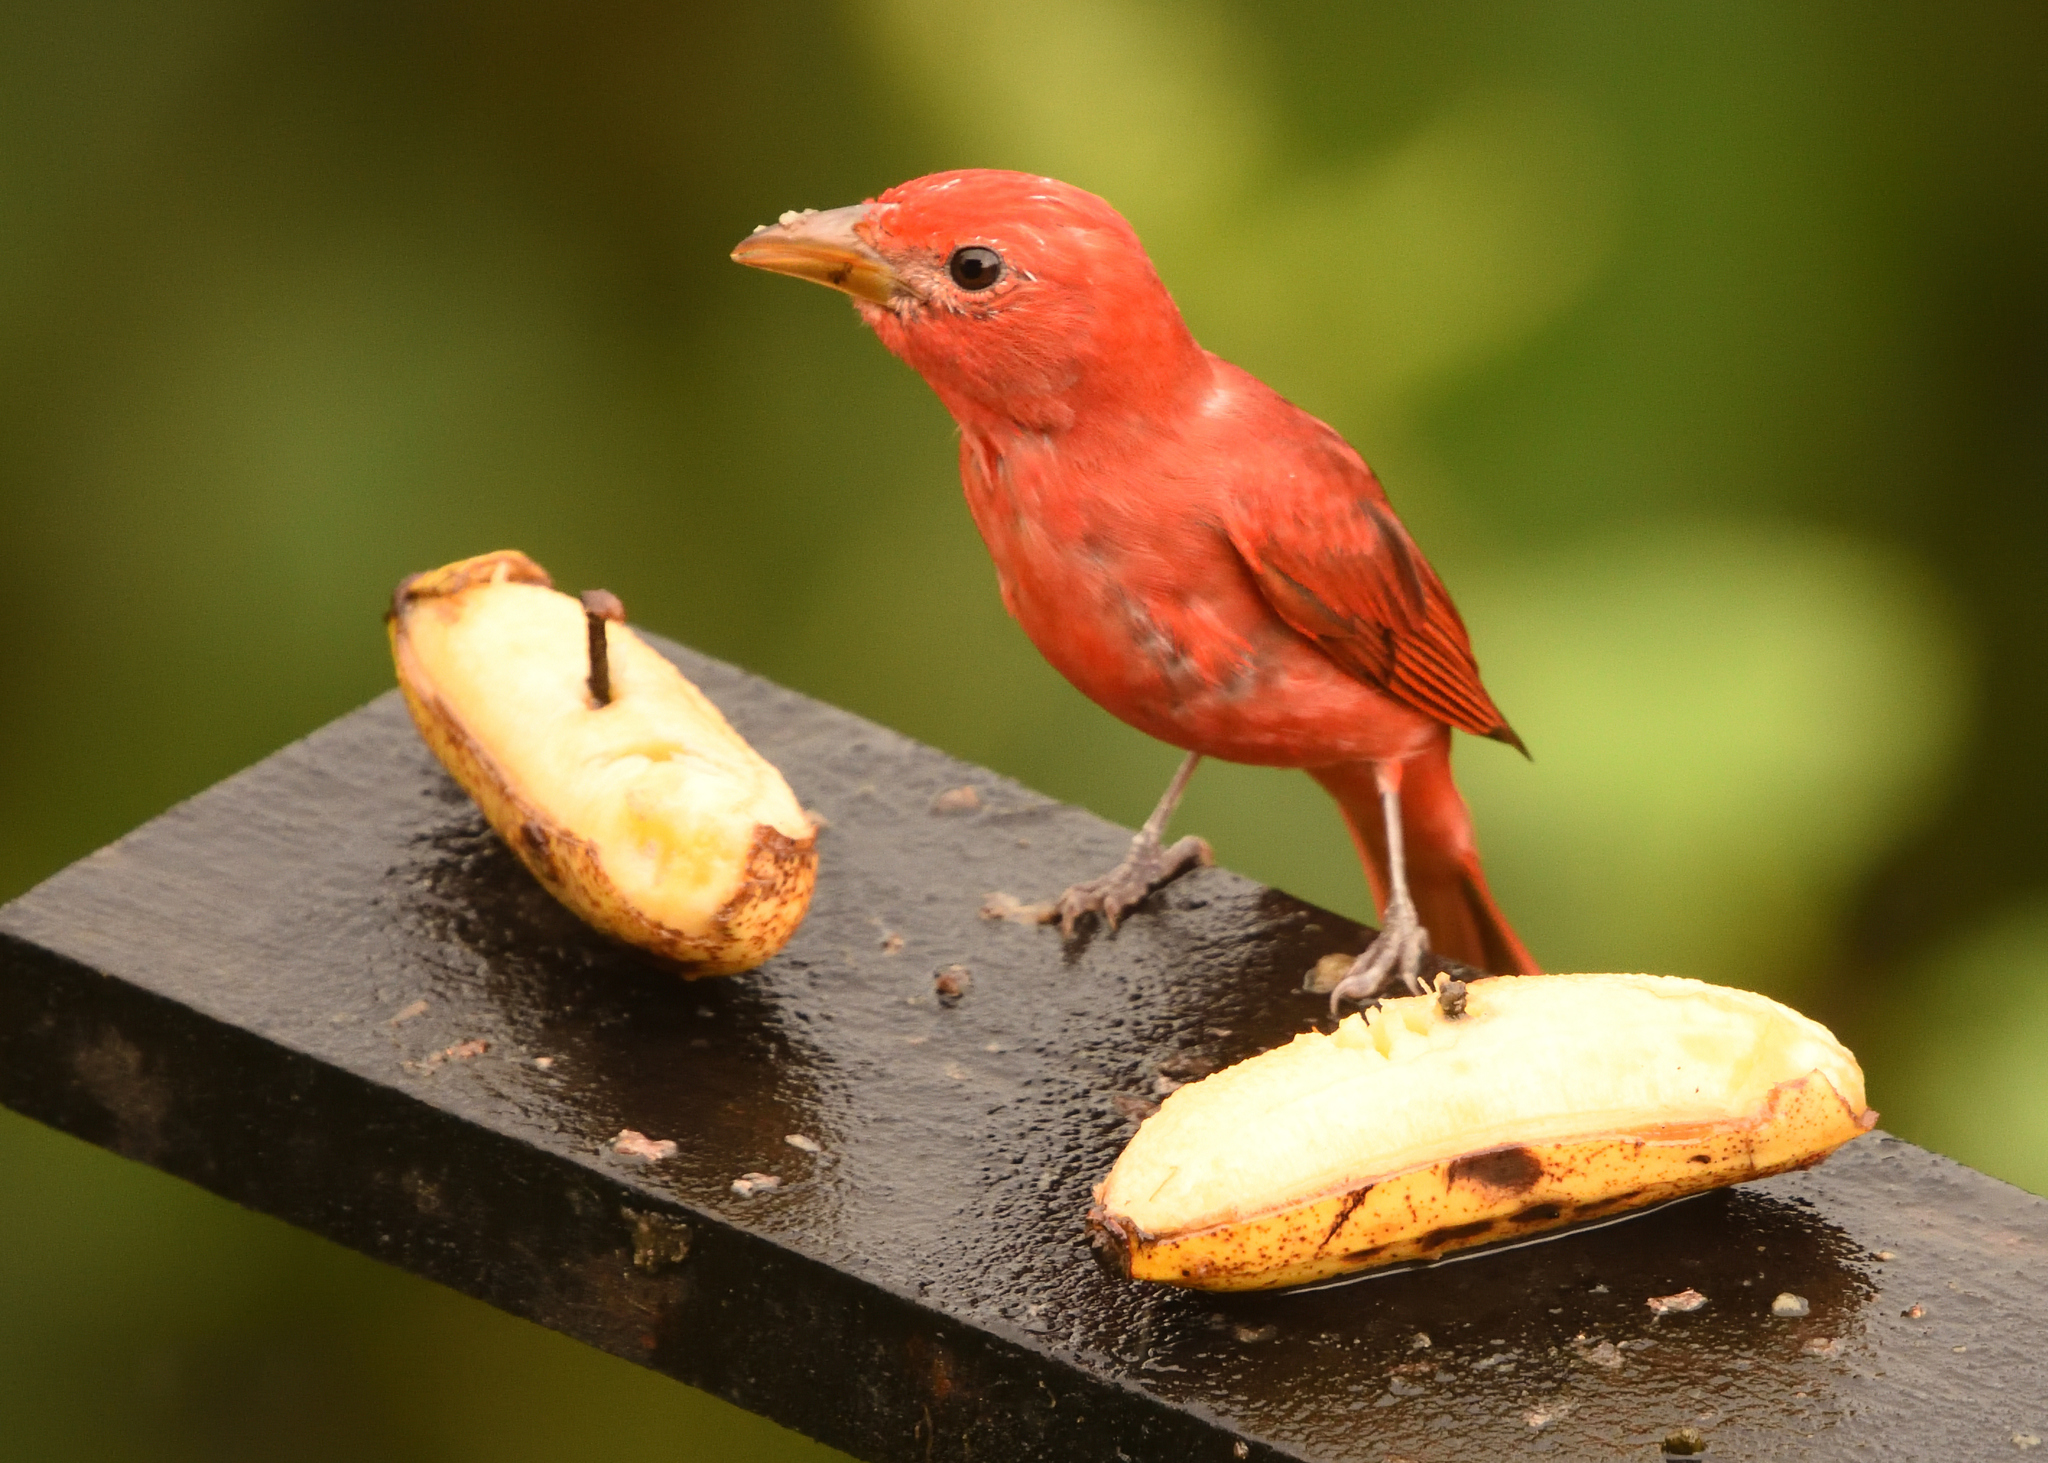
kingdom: Animalia
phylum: Chordata
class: Aves
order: Passeriformes
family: Cardinalidae
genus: Piranga
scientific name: Piranga rubra
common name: Summer tanager
